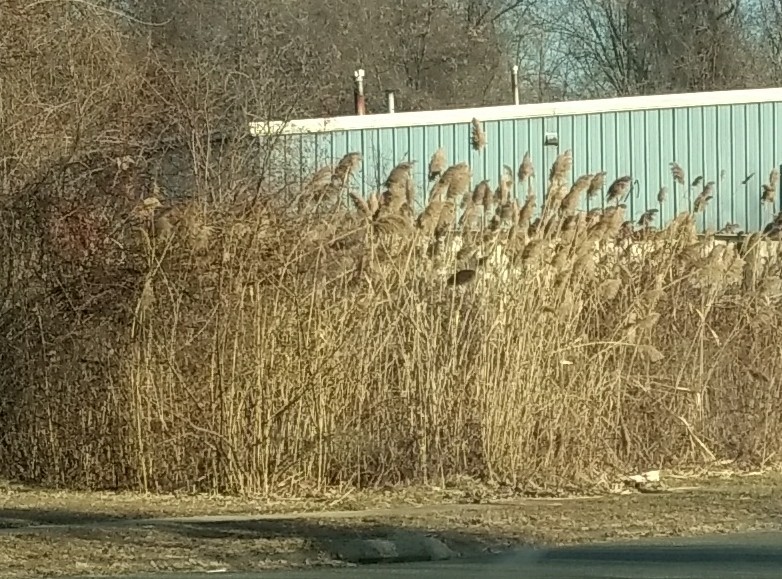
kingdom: Plantae
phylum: Tracheophyta
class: Liliopsida
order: Poales
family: Poaceae
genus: Phragmites
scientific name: Phragmites australis
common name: Common reed
